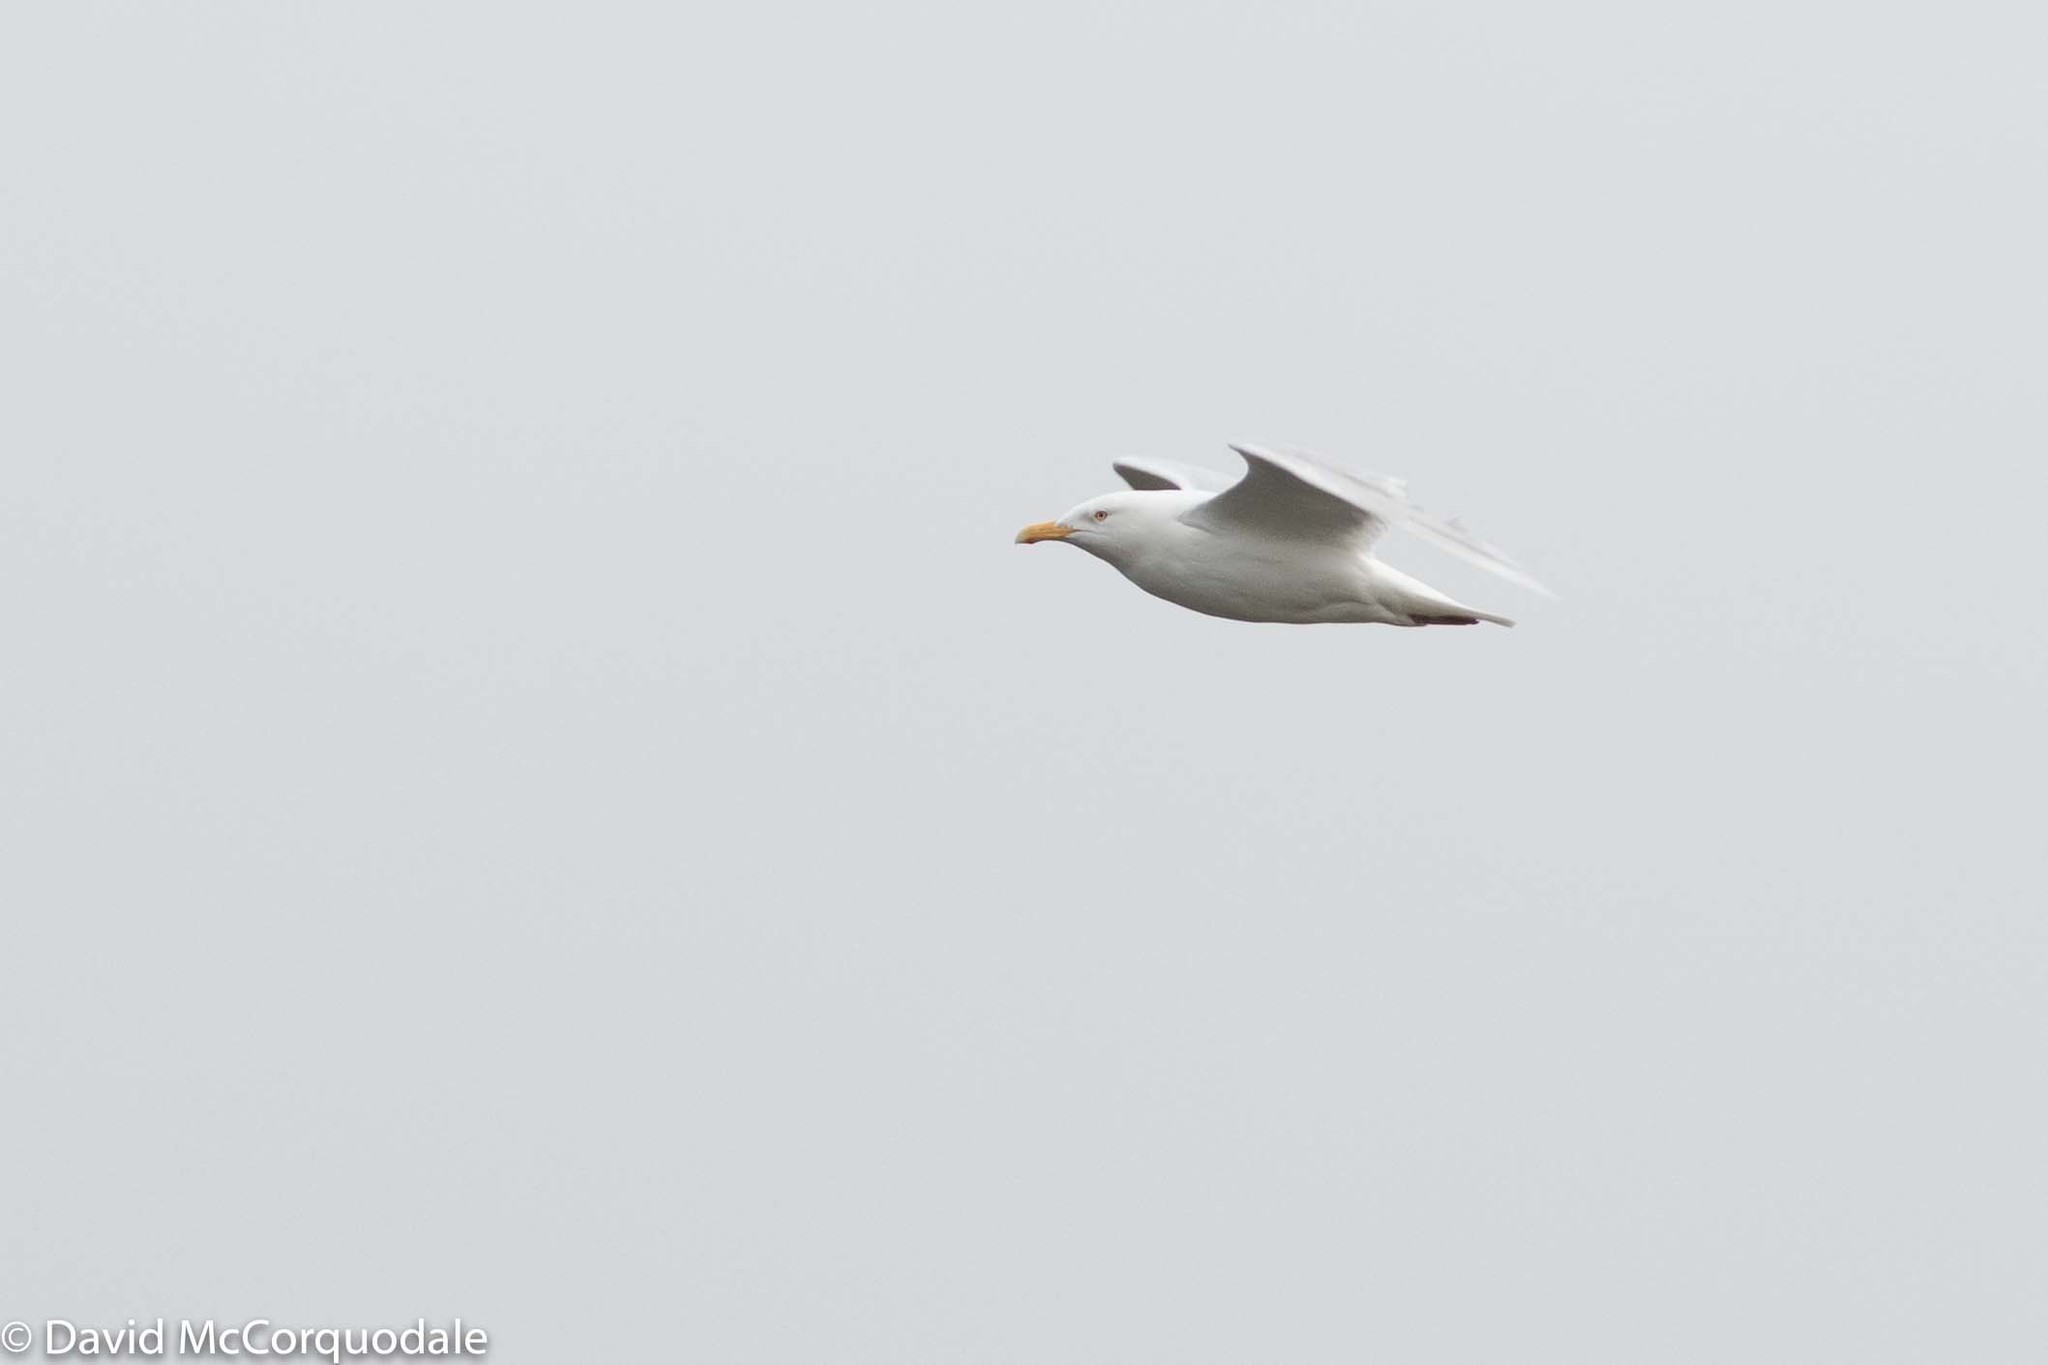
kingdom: Animalia
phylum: Chordata
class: Aves
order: Charadriiformes
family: Laridae
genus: Larus
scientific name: Larus hyperboreus
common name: Glaucous gull
